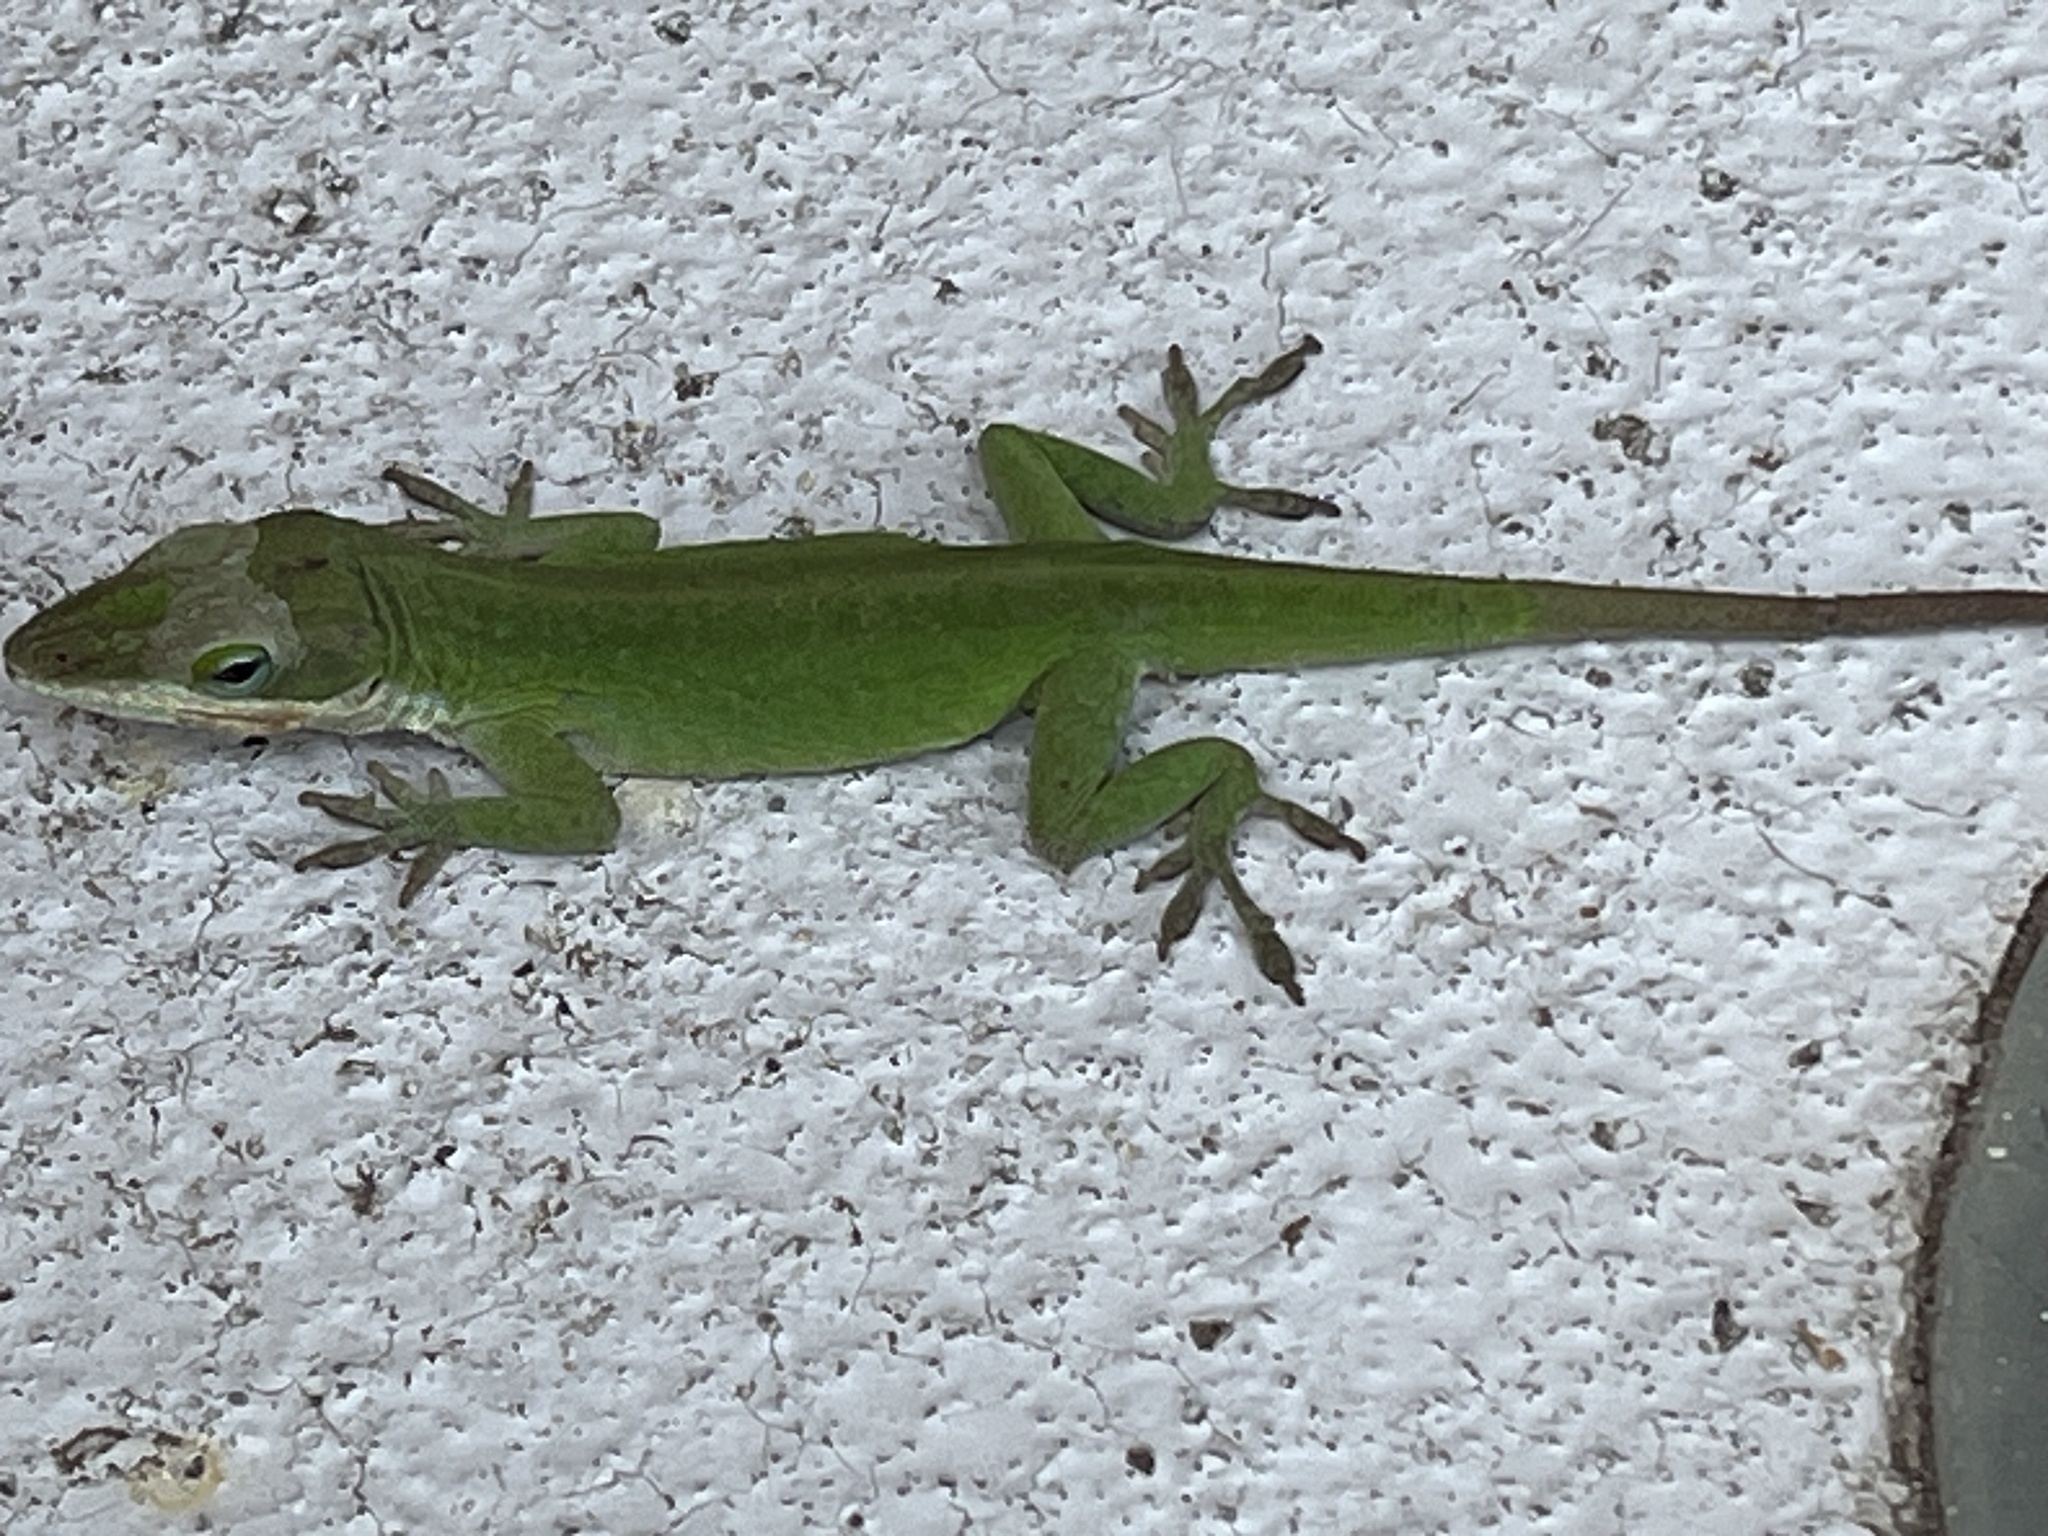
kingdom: Animalia
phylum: Chordata
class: Squamata
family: Dactyloidae
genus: Anolis
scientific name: Anolis carolinensis
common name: Green anole
